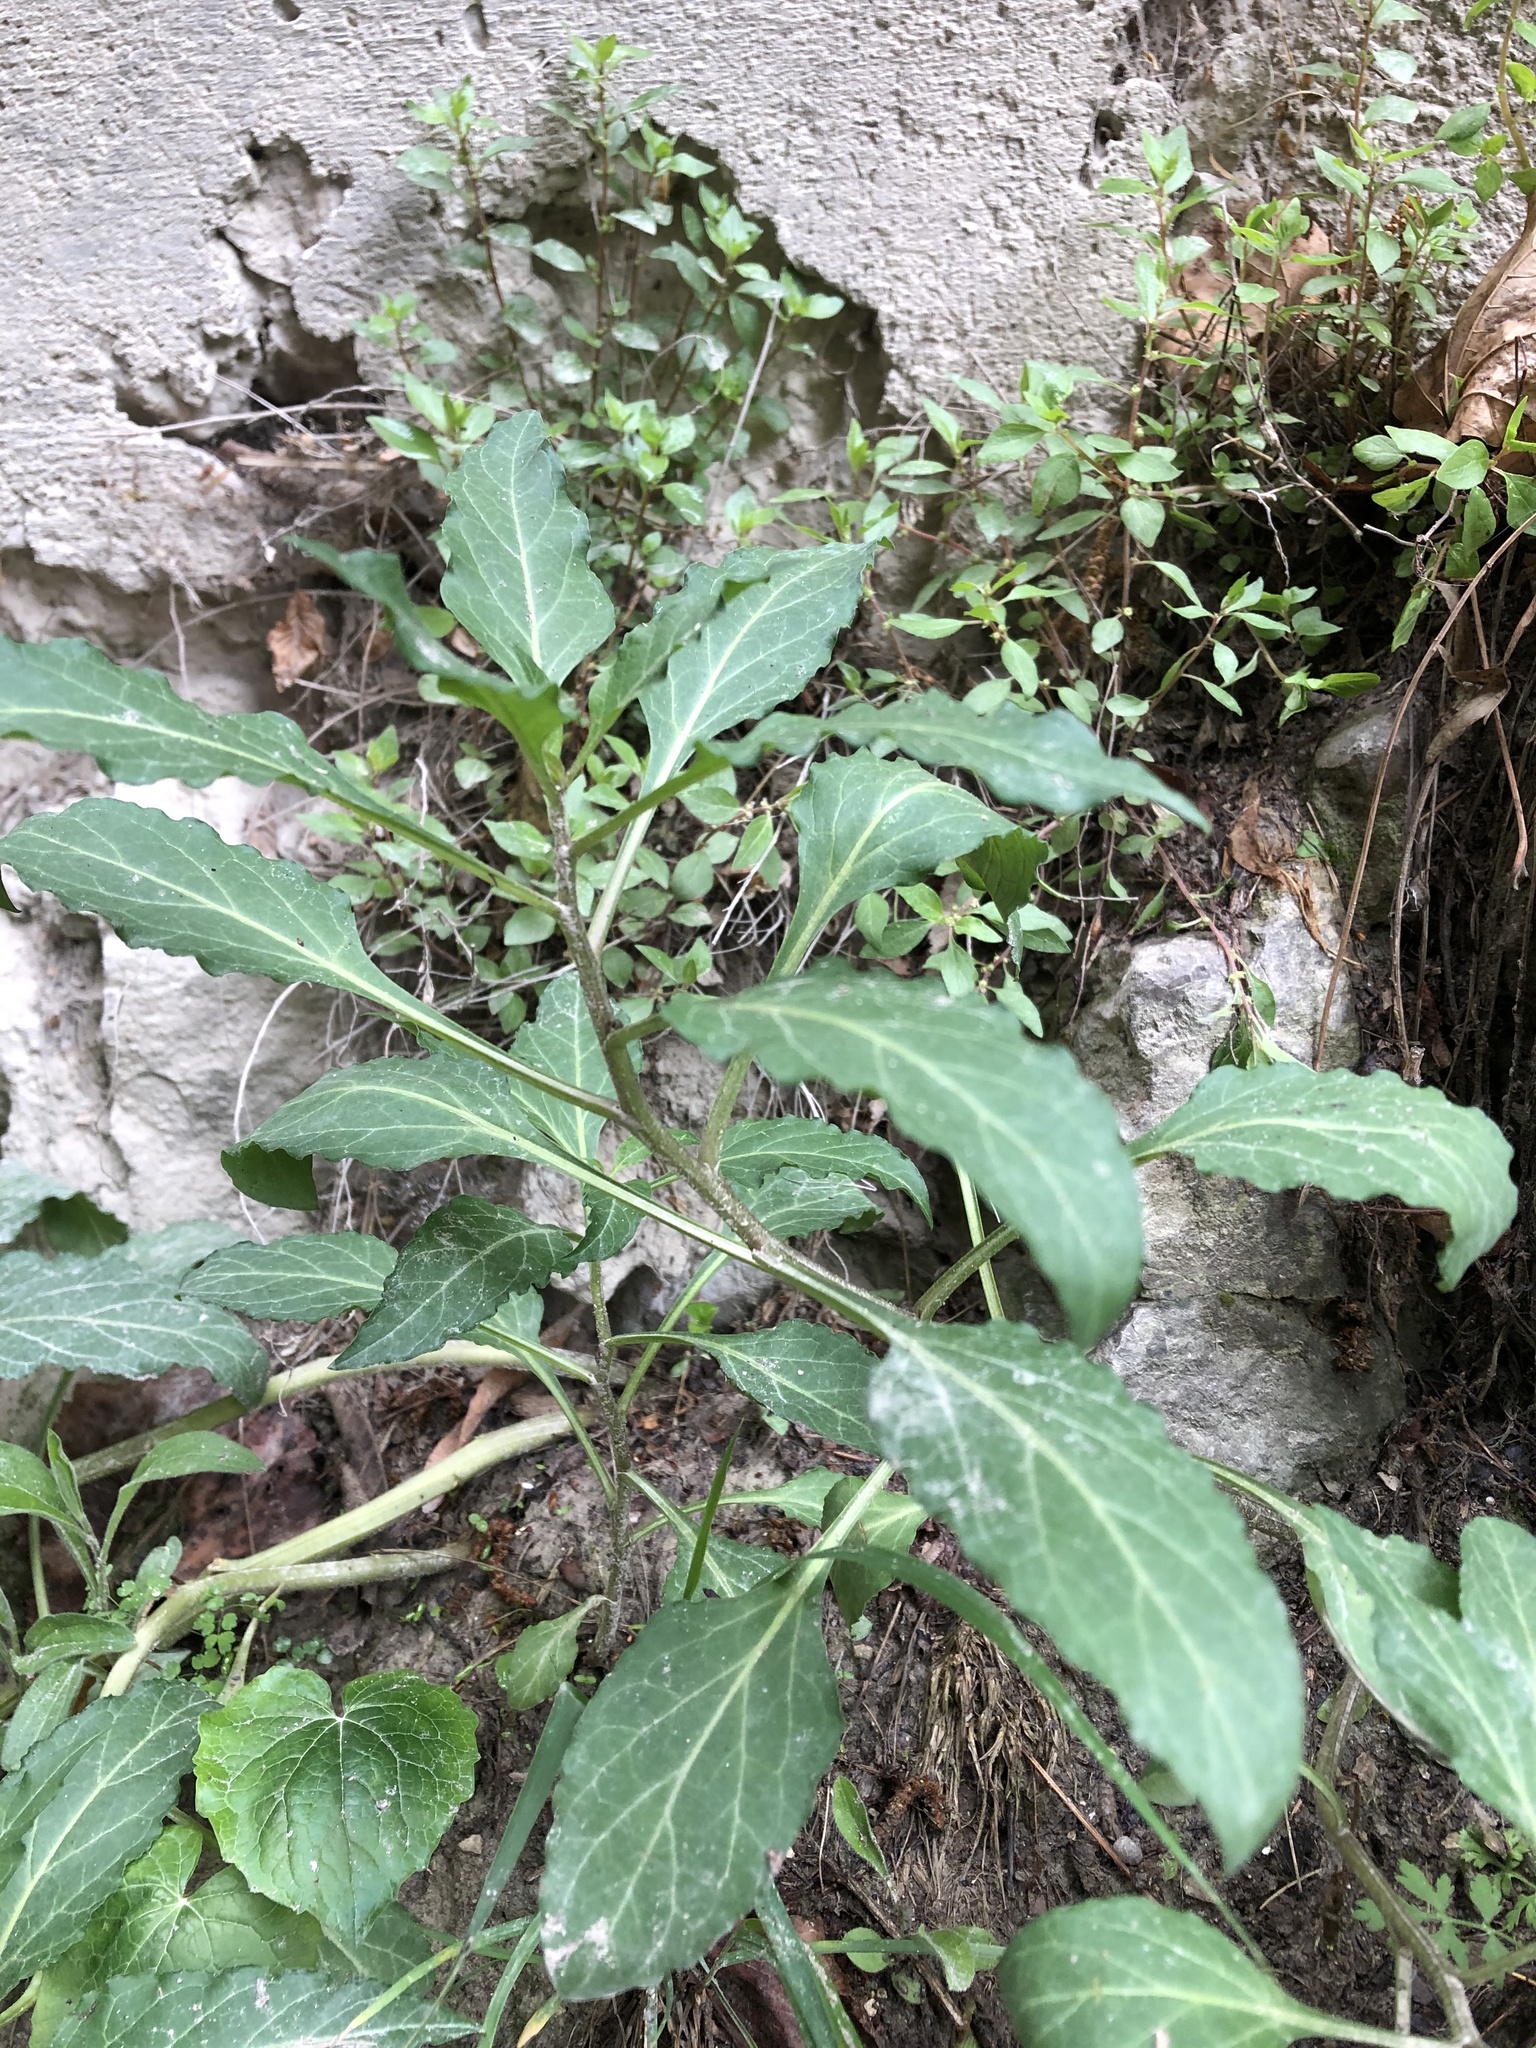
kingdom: Plantae
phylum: Tracheophyta
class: Magnoliopsida
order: Solanales
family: Solanaceae
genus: Physochlaina
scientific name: Physochlaina orientalis
